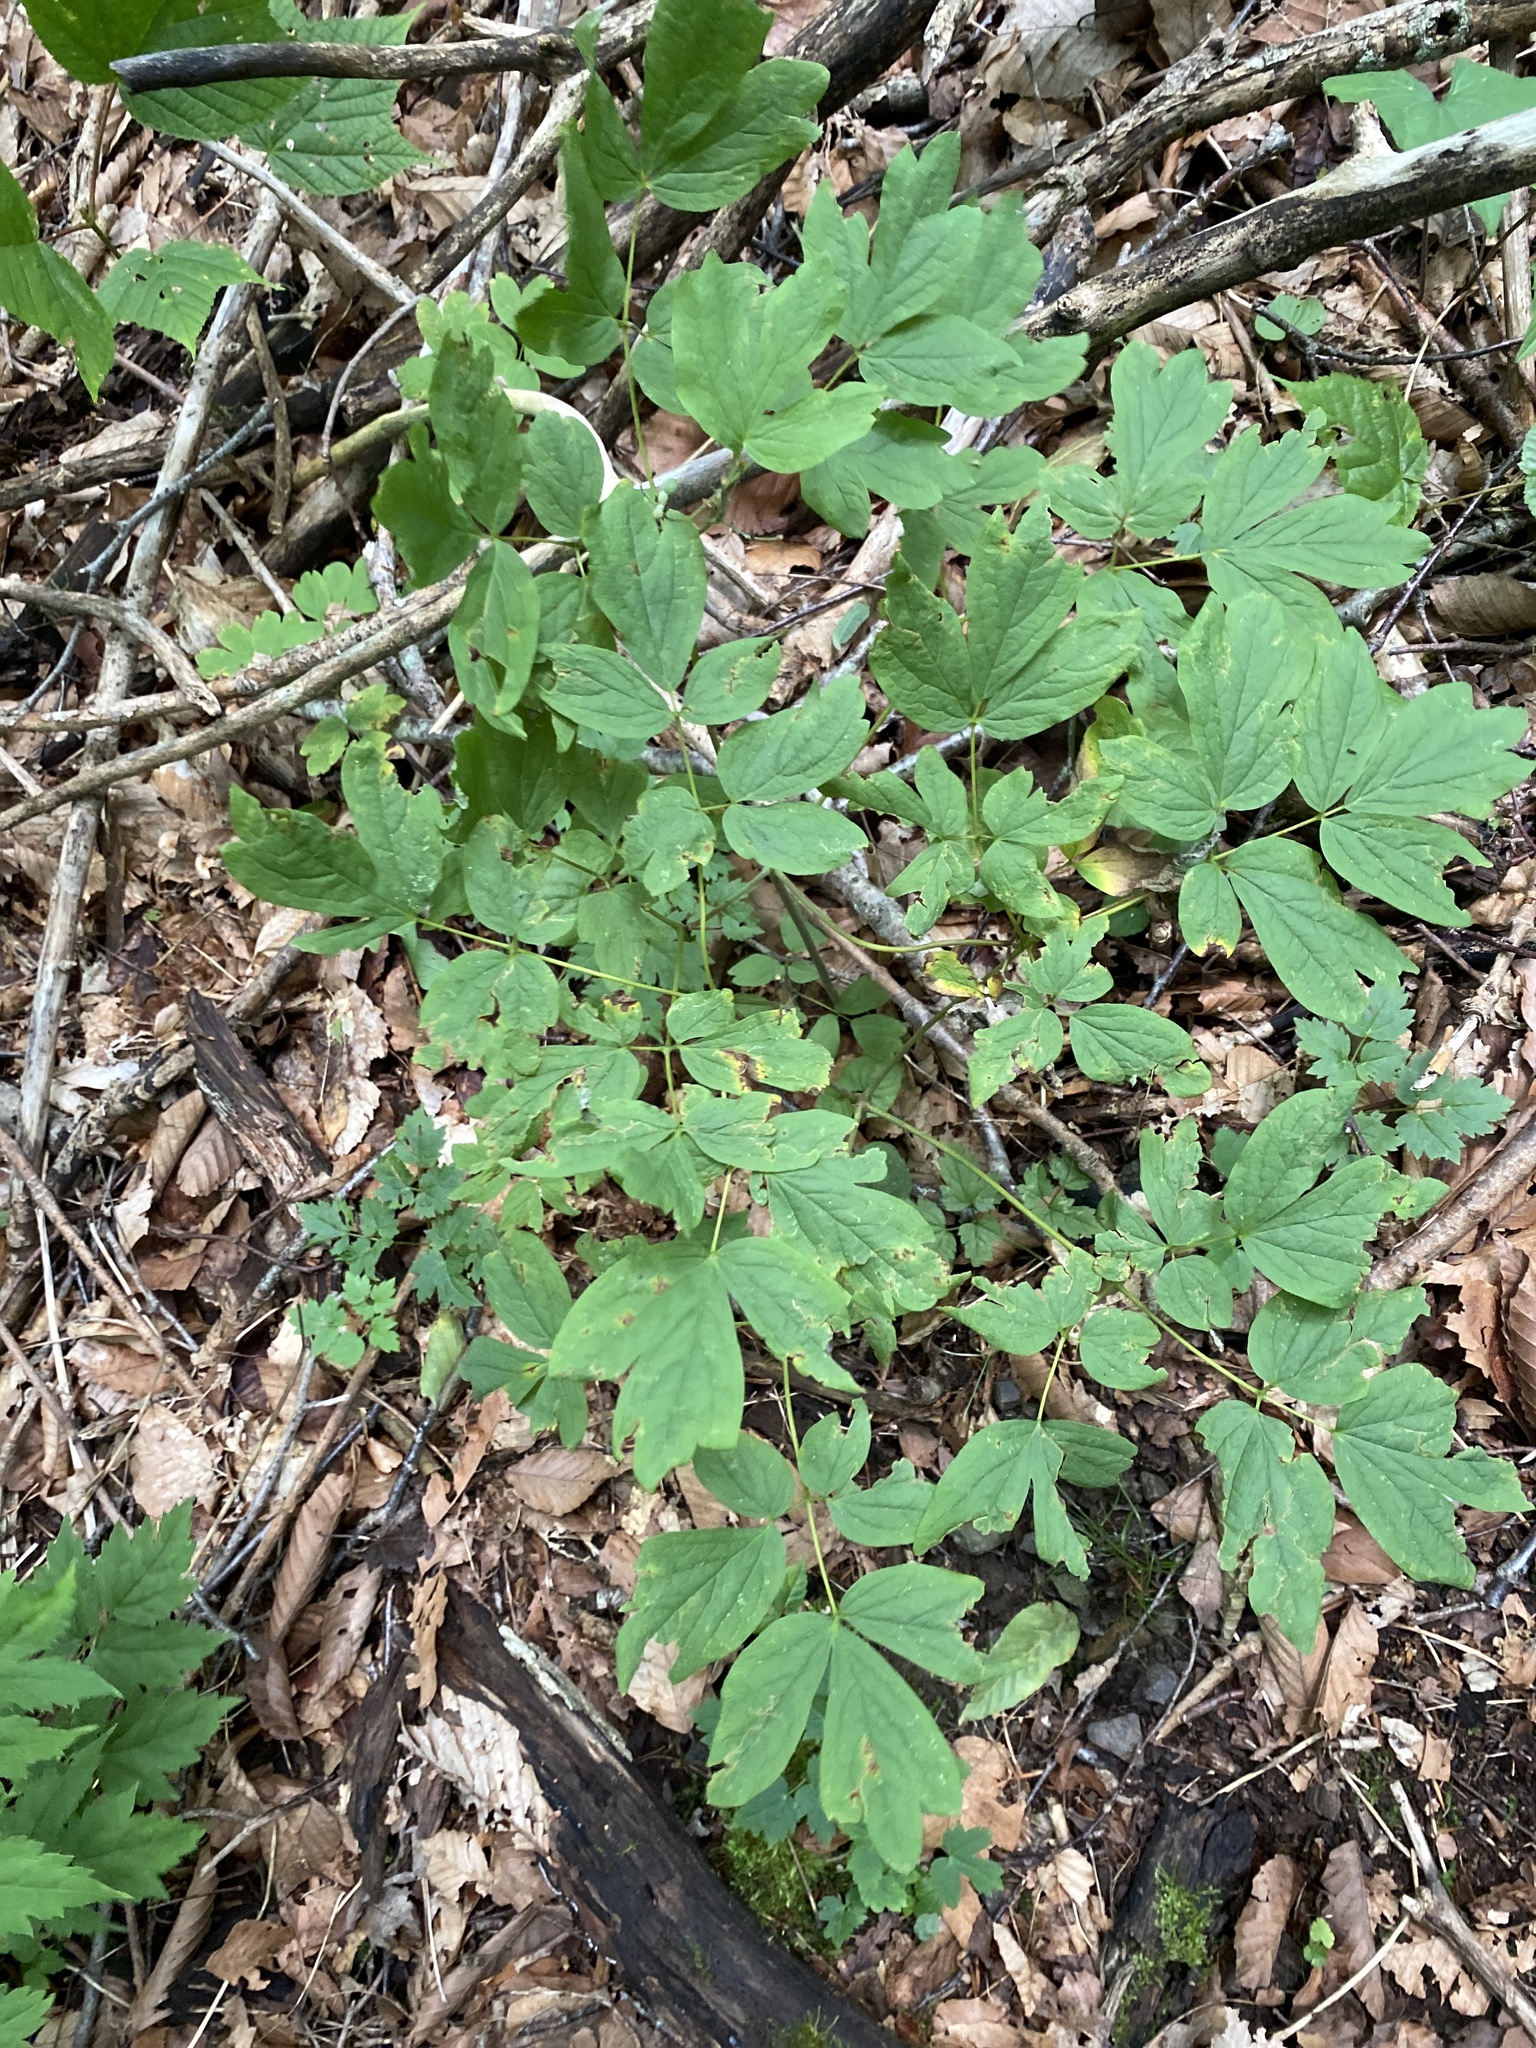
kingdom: Plantae
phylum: Tracheophyta
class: Magnoliopsida
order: Ranunculales
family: Berberidaceae
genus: Caulophyllum
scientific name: Caulophyllum thalictroides
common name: Blue cohosh
